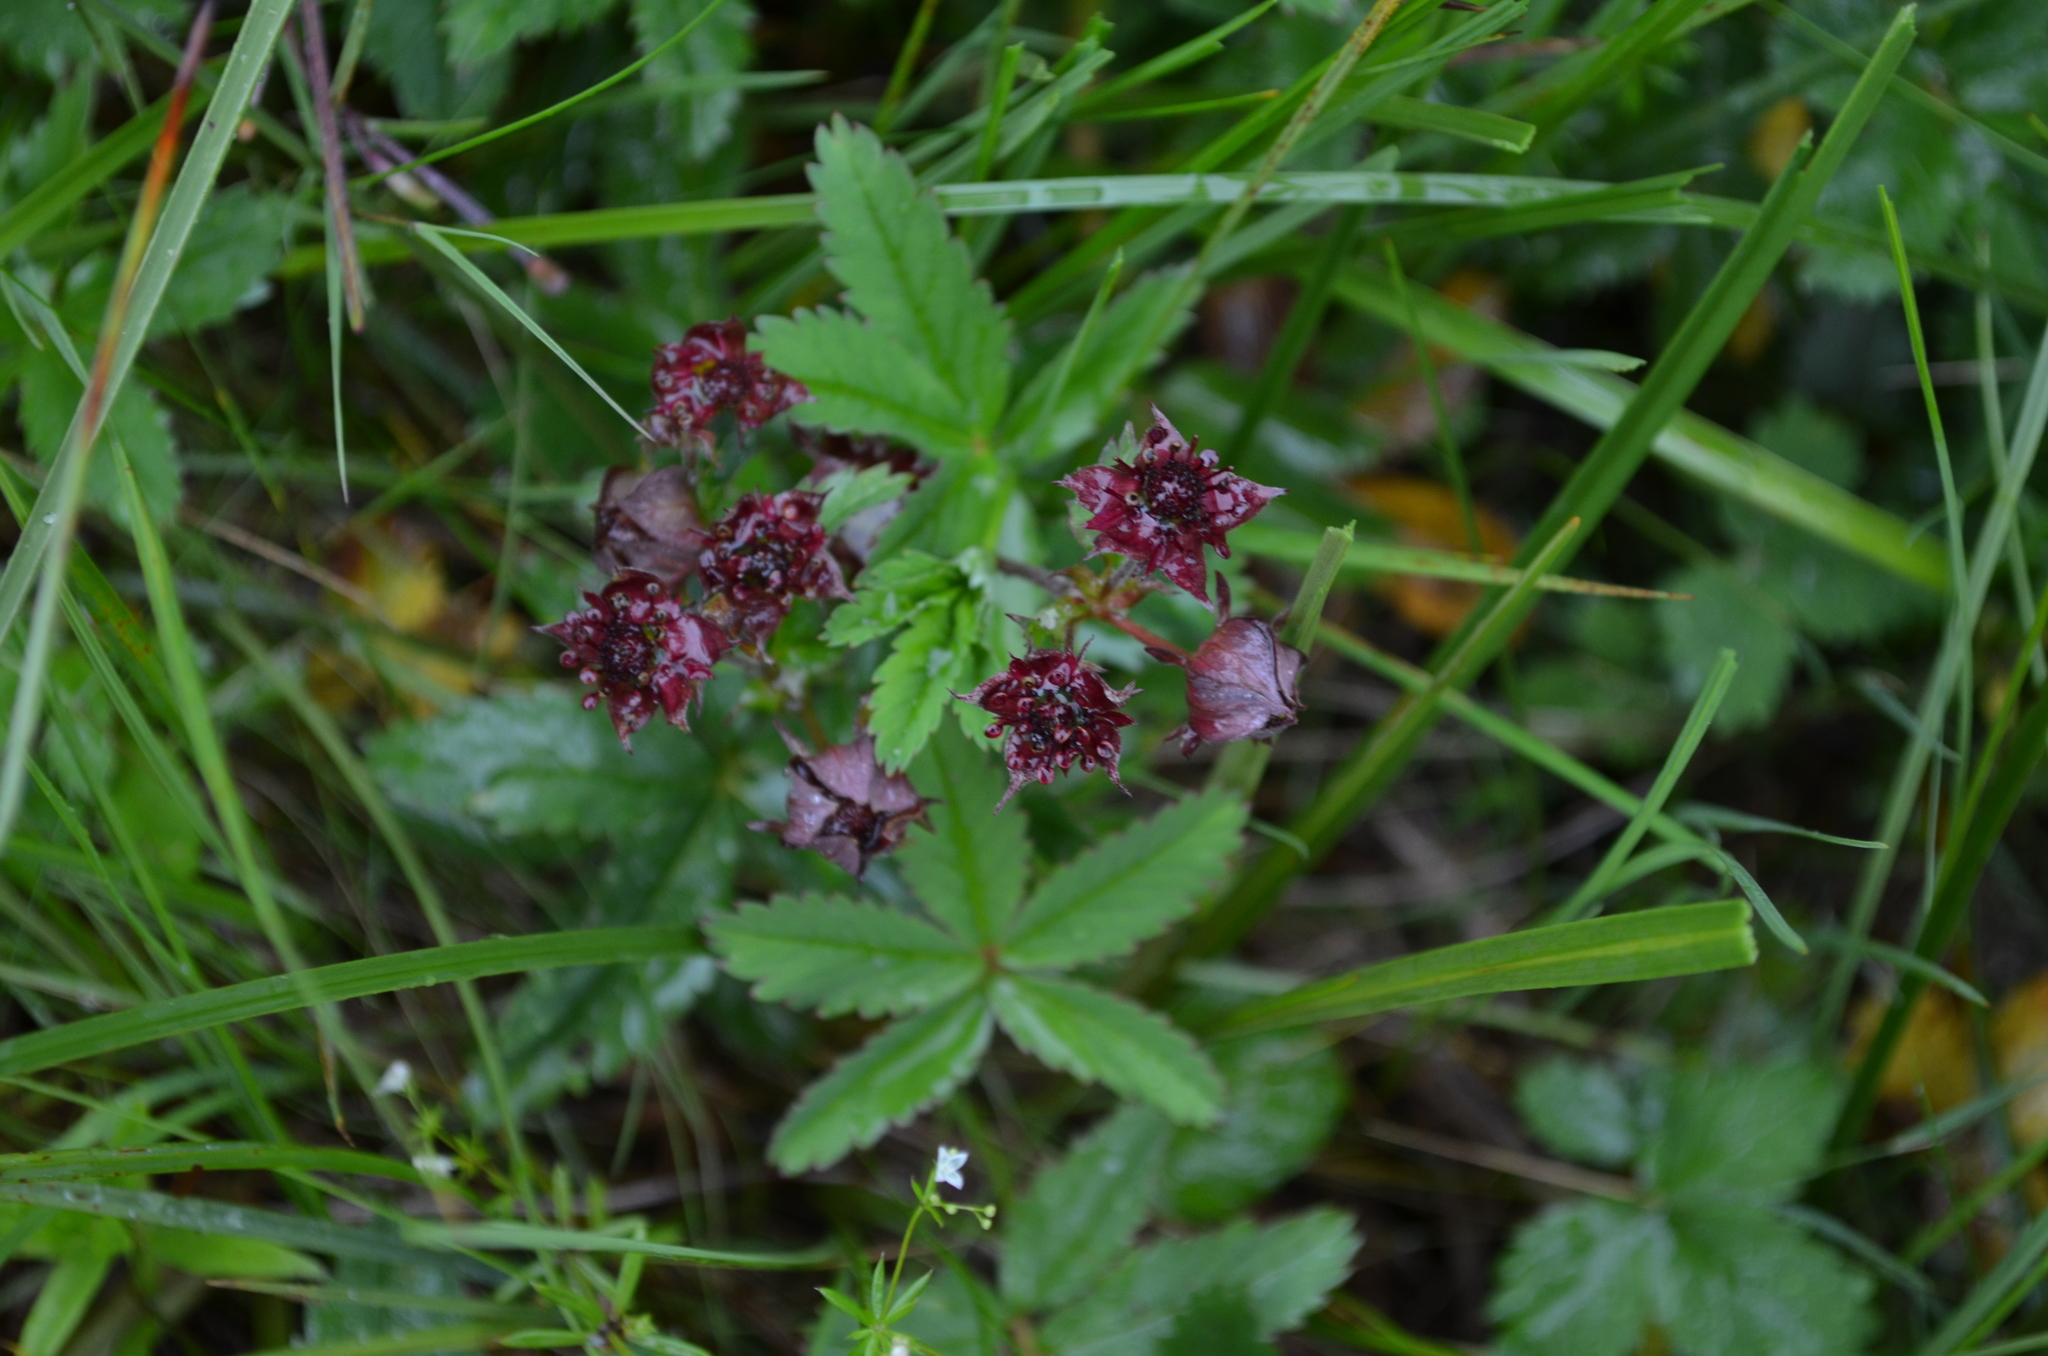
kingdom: Plantae
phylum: Tracheophyta
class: Magnoliopsida
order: Rosales
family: Rosaceae
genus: Comarum
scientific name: Comarum palustre
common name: Marsh cinquefoil
